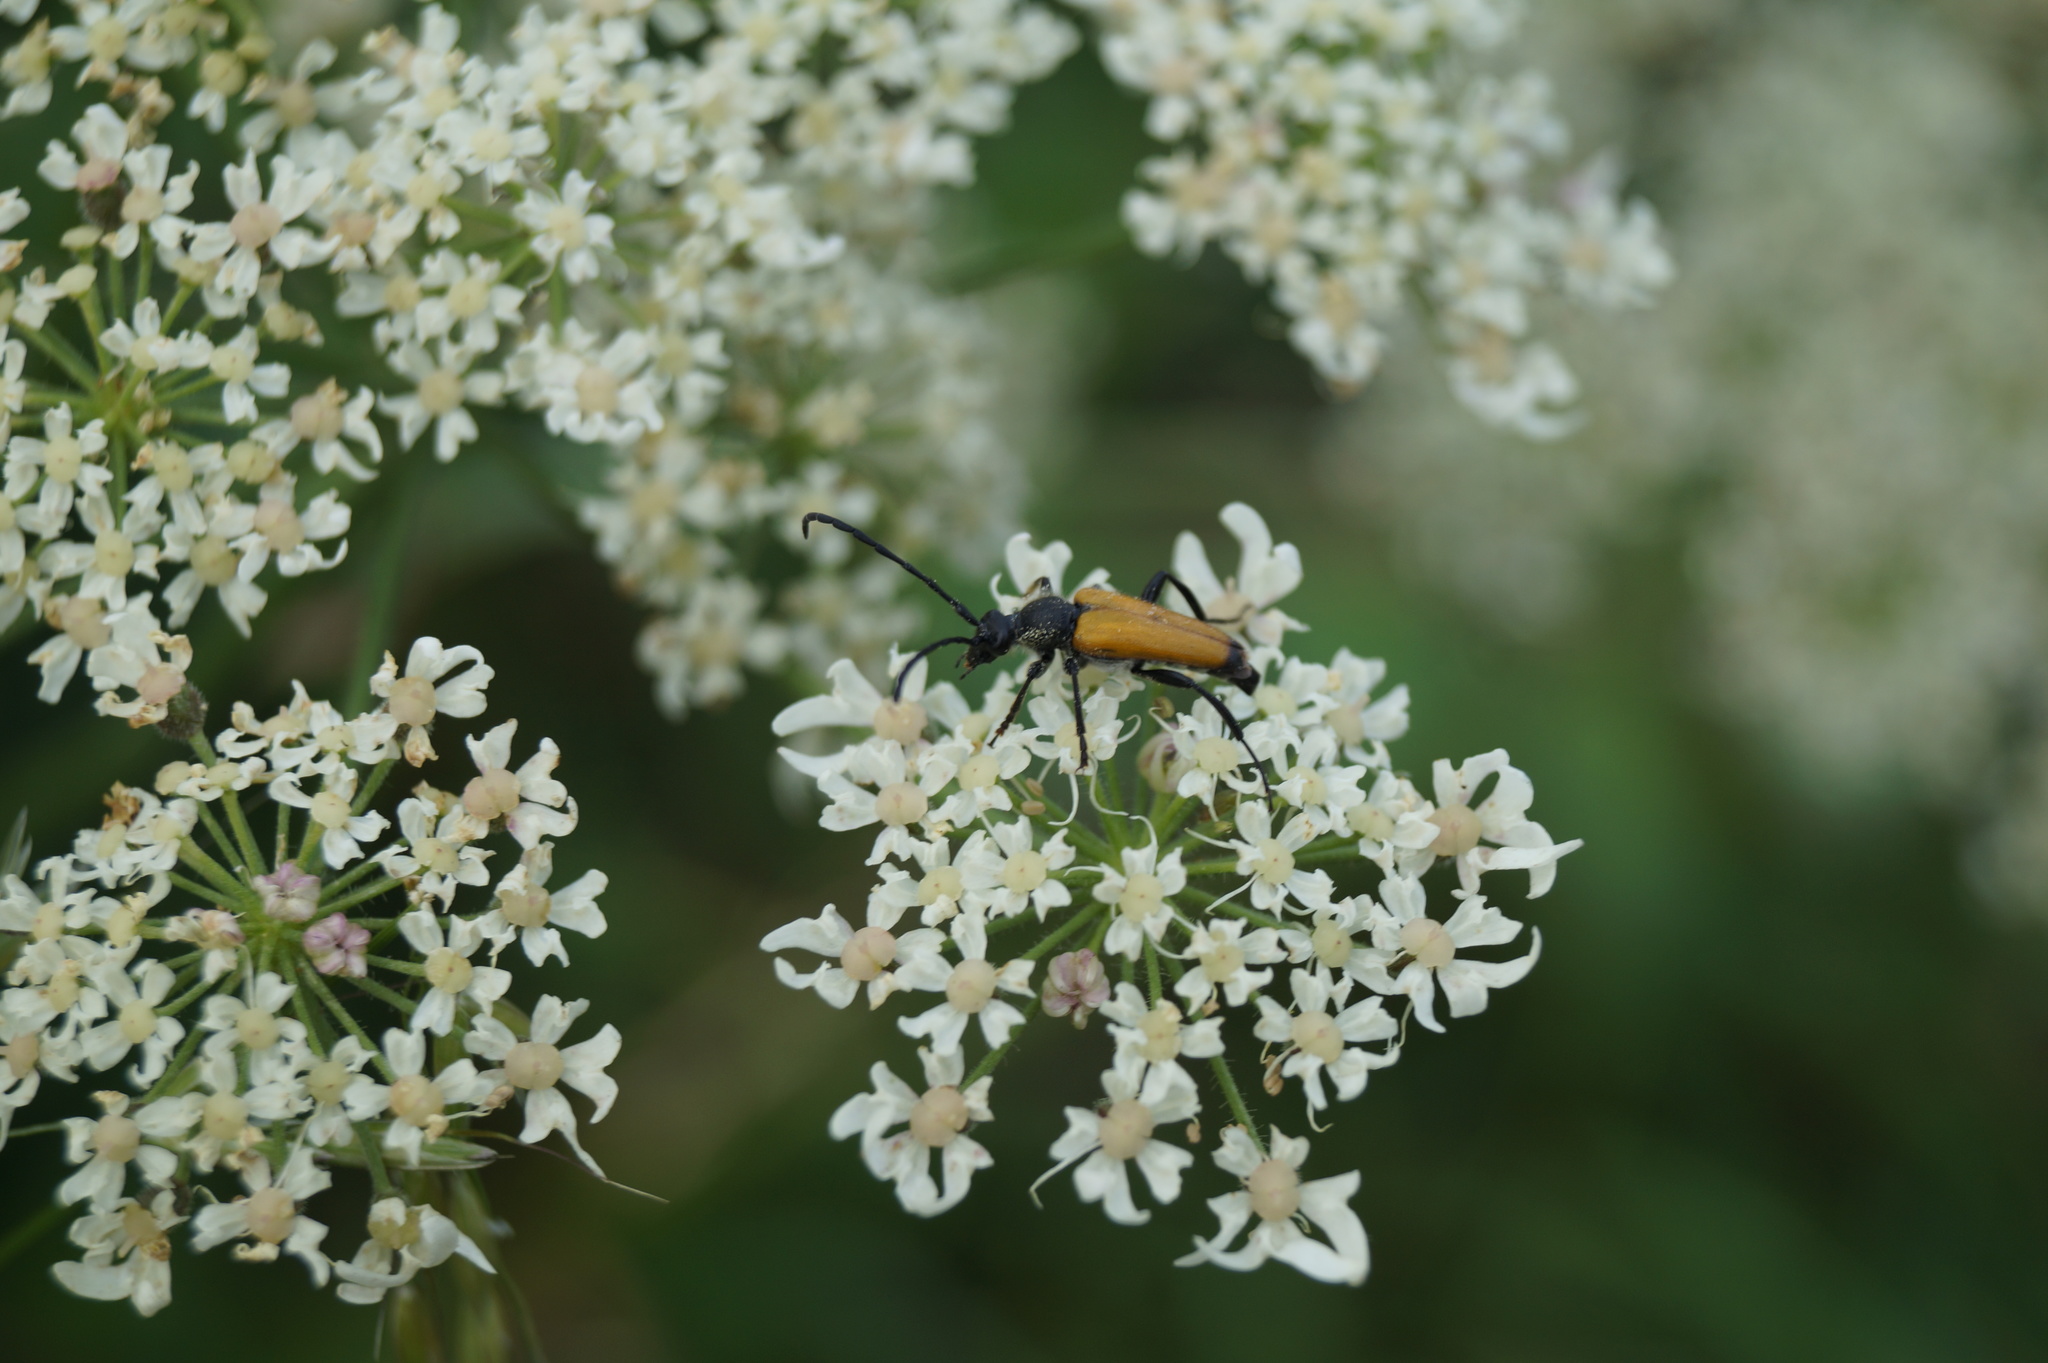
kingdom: Animalia
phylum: Arthropoda
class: Insecta
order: Coleoptera
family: Cerambycidae
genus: Paracorymbia
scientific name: Paracorymbia fulva
